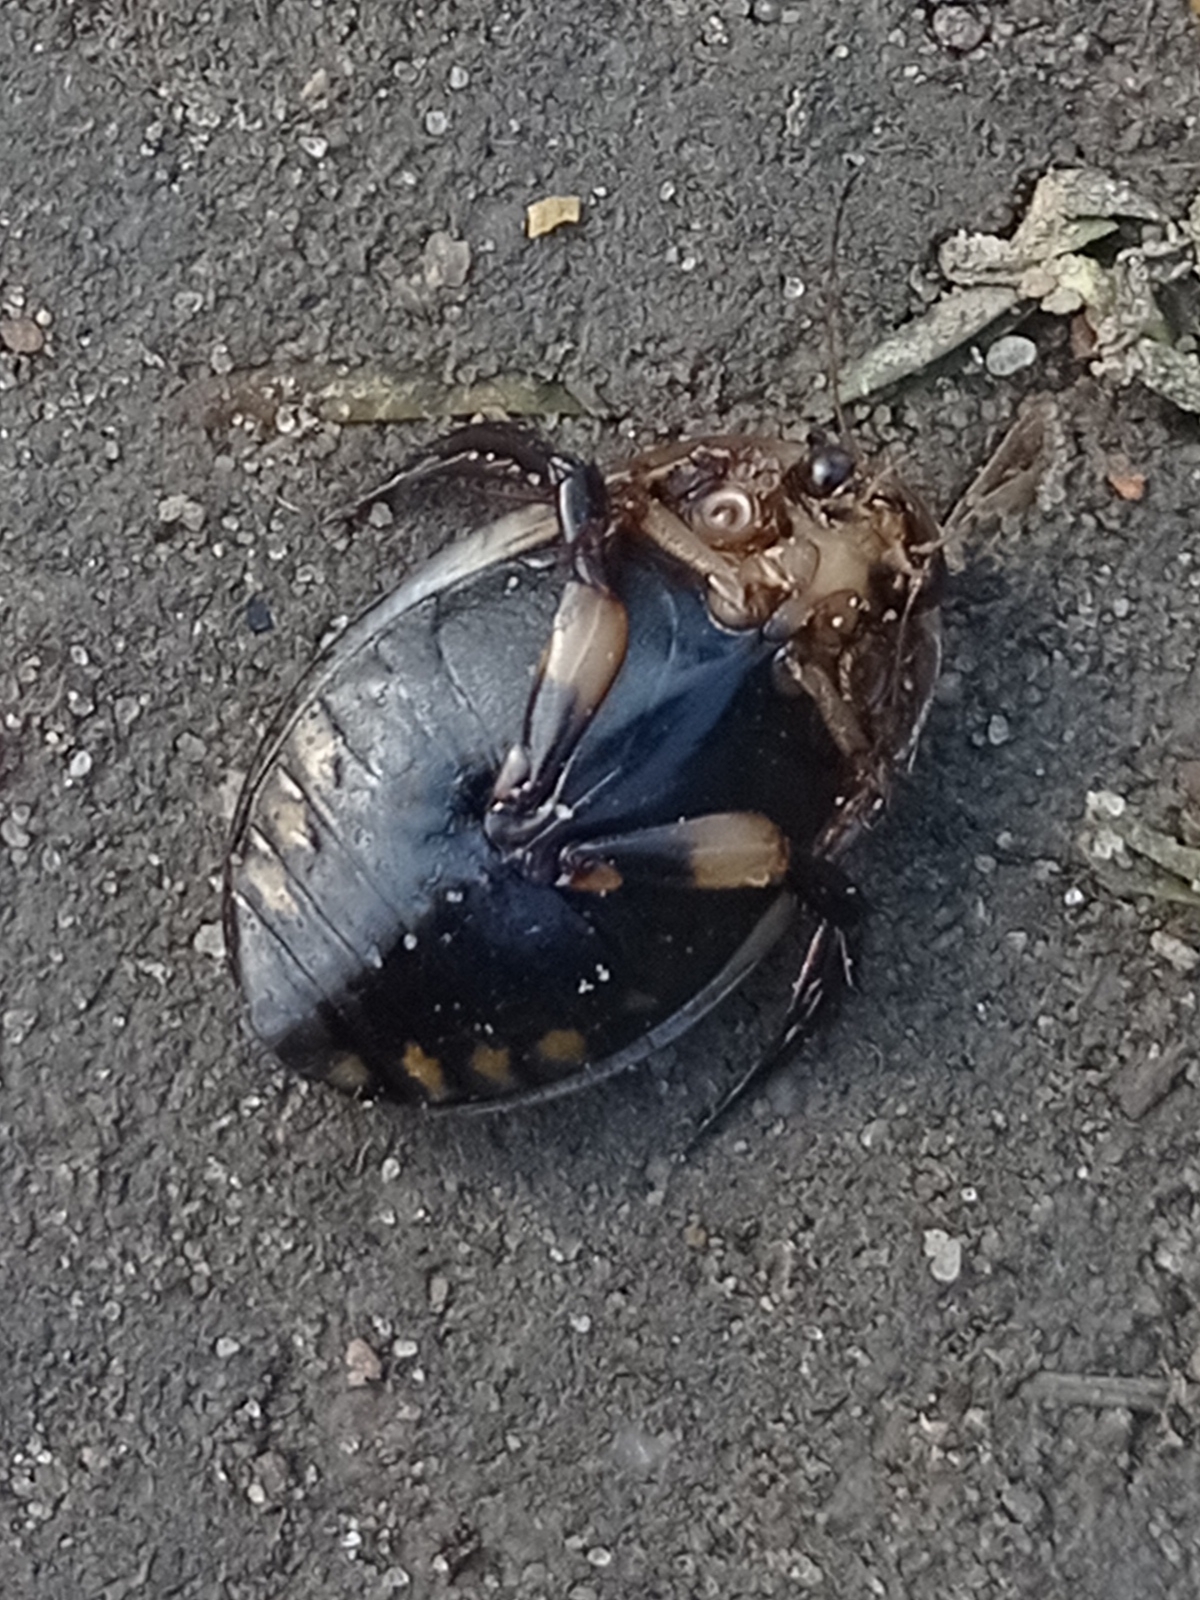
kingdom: Animalia
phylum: Arthropoda
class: Insecta
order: Coleoptera
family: Dytiscidae
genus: Acilius
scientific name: Acilius sulcatus
